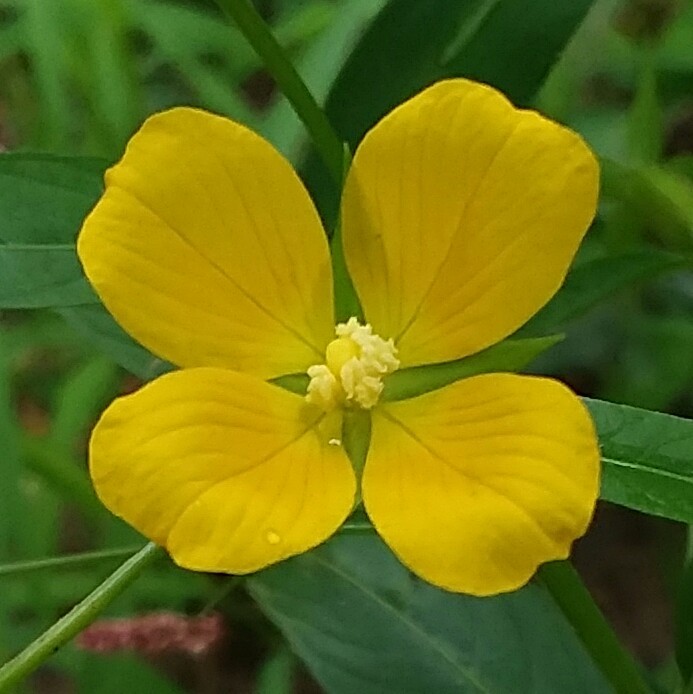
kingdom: Plantae
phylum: Tracheophyta
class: Magnoliopsida
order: Myrtales
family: Onagraceae
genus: Ludwigia
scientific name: Ludwigia decurrens
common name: Winged water-primrose
